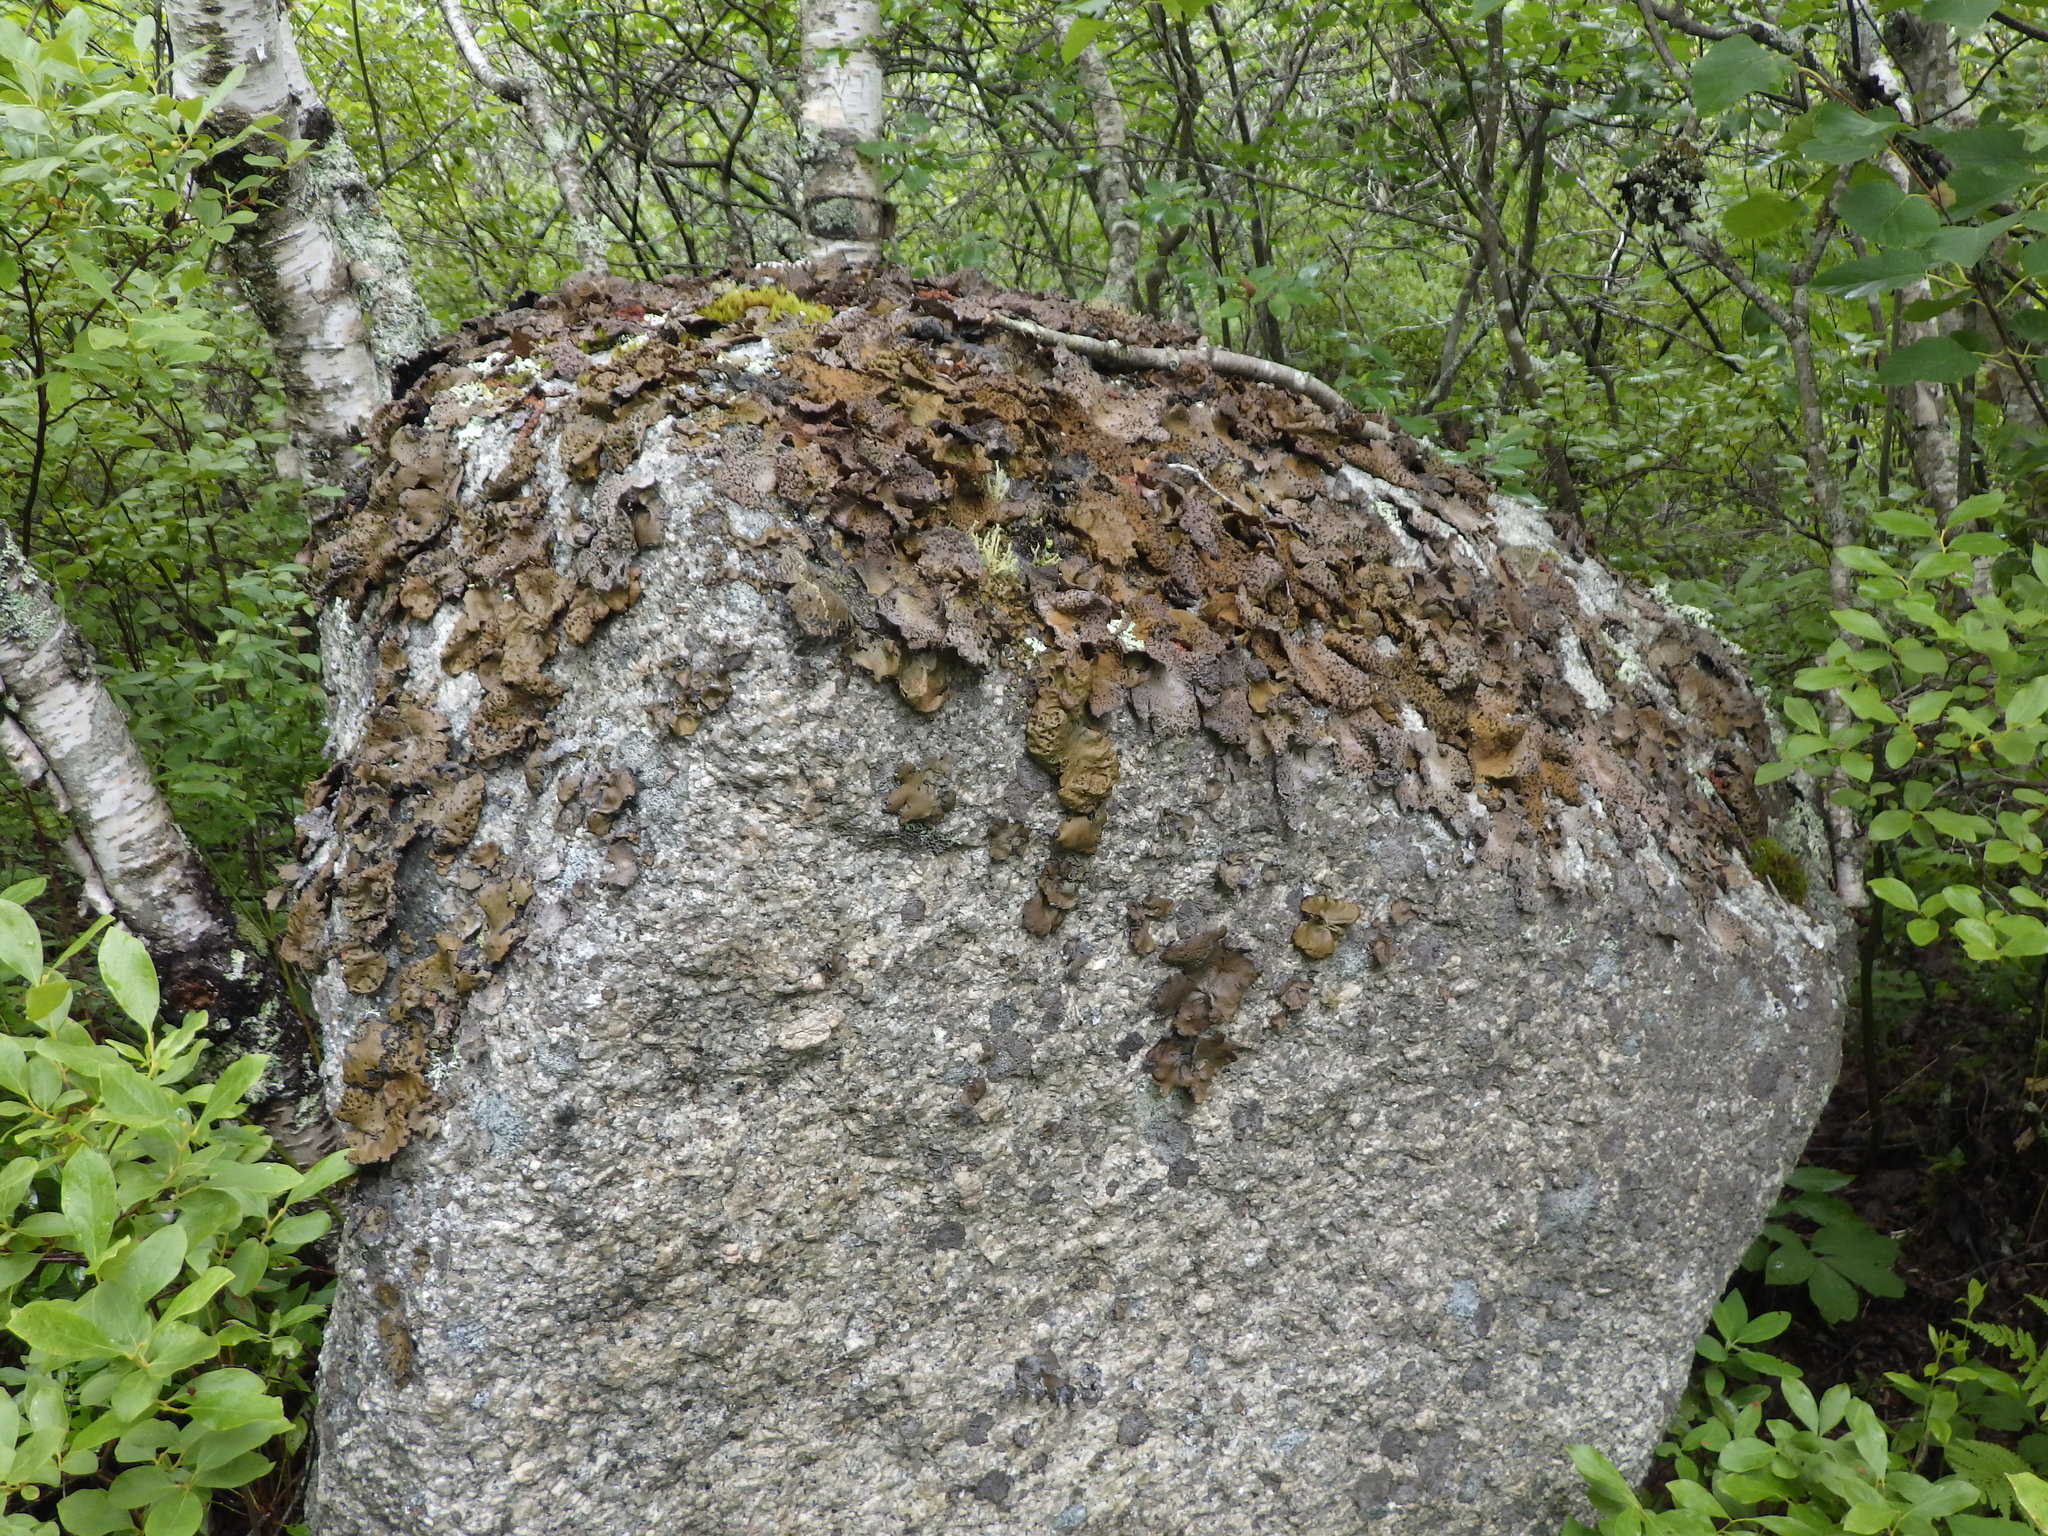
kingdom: Fungi
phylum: Ascomycota
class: Lecanoromycetes
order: Umbilicariales
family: Umbilicariaceae
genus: Umbilicaria
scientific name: Umbilicaria muhlenbergii
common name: Lesser rocktripe
